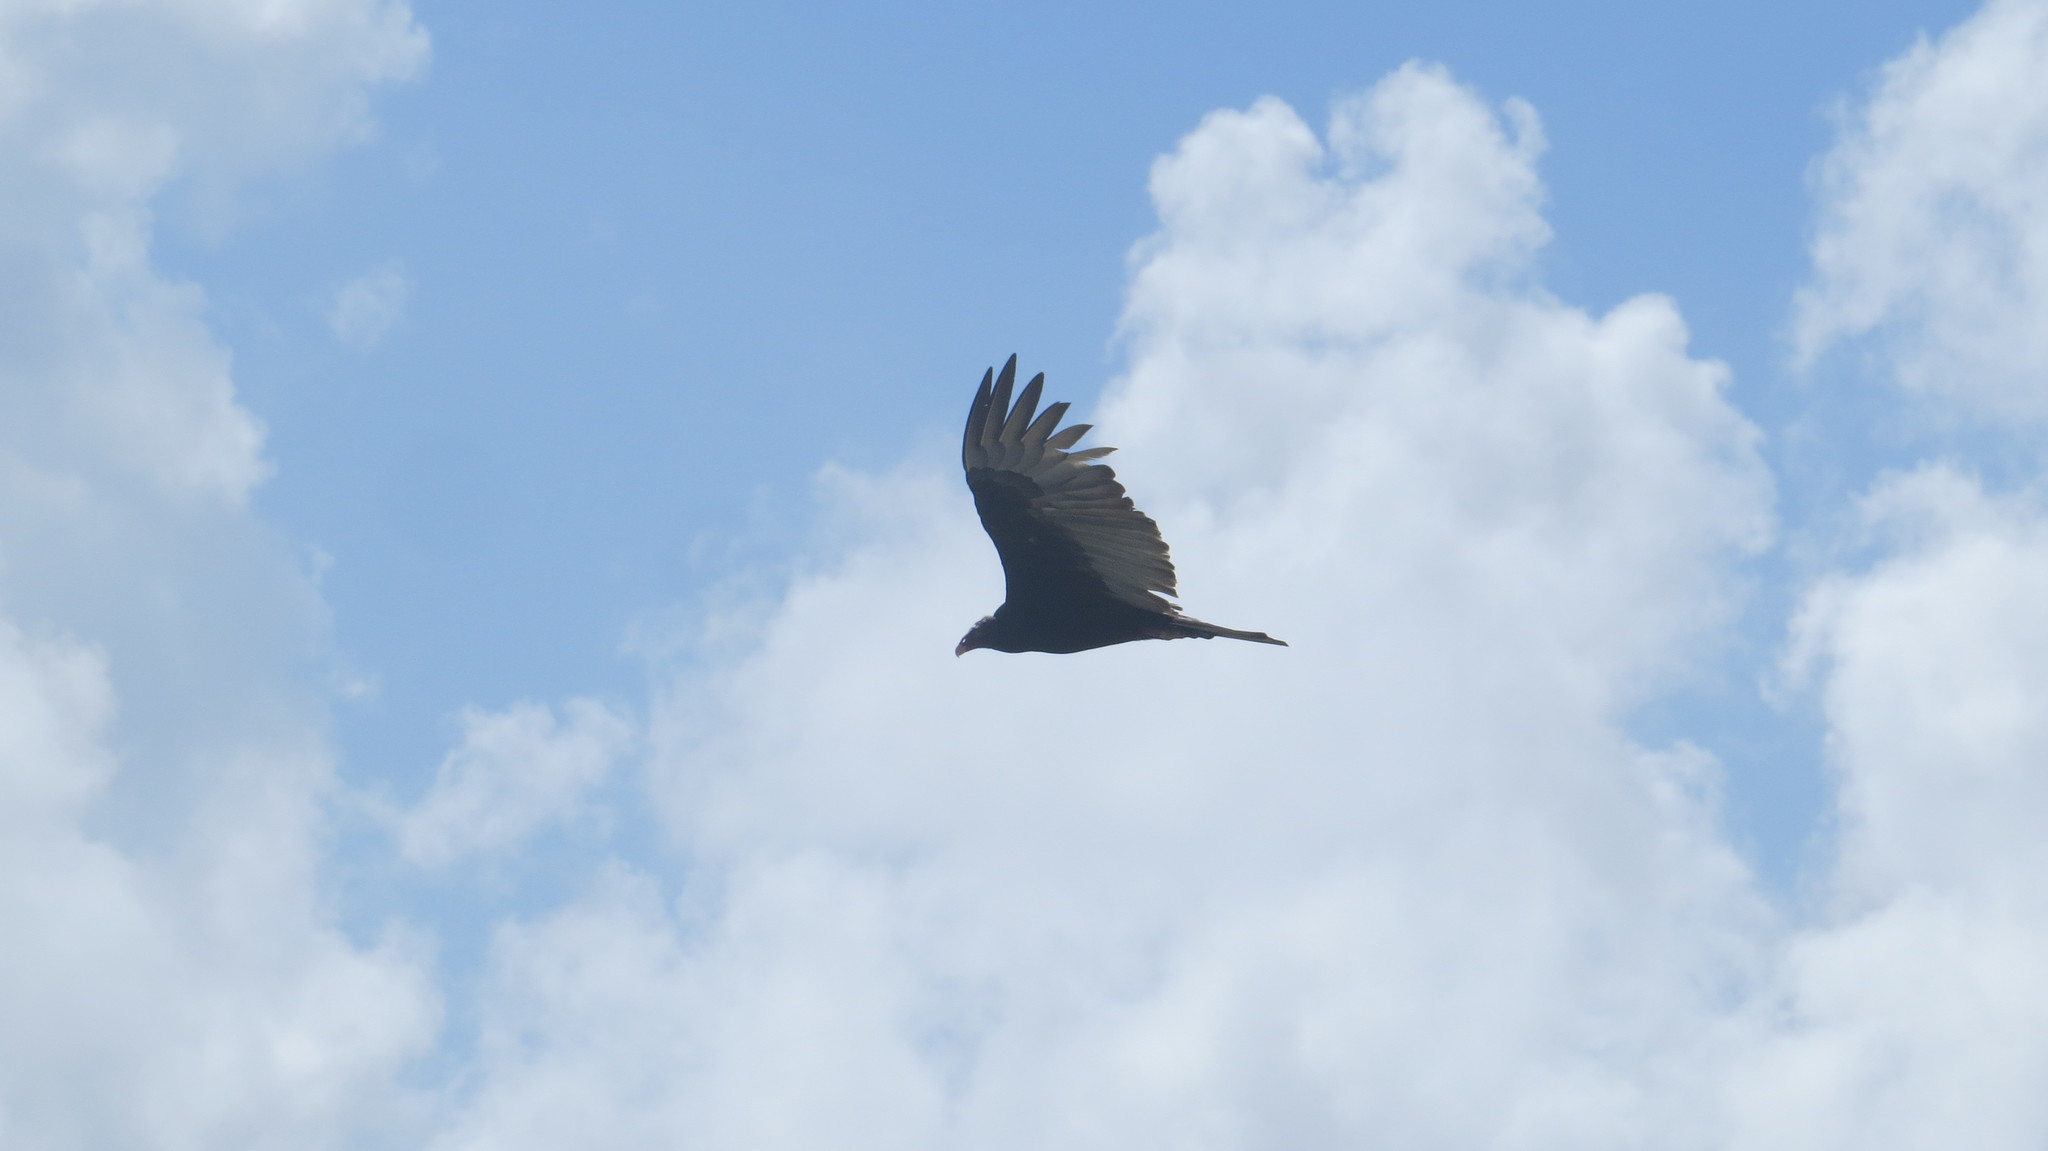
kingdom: Animalia
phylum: Chordata
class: Aves
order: Accipitriformes
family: Cathartidae
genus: Cathartes
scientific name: Cathartes aura
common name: Turkey vulture
